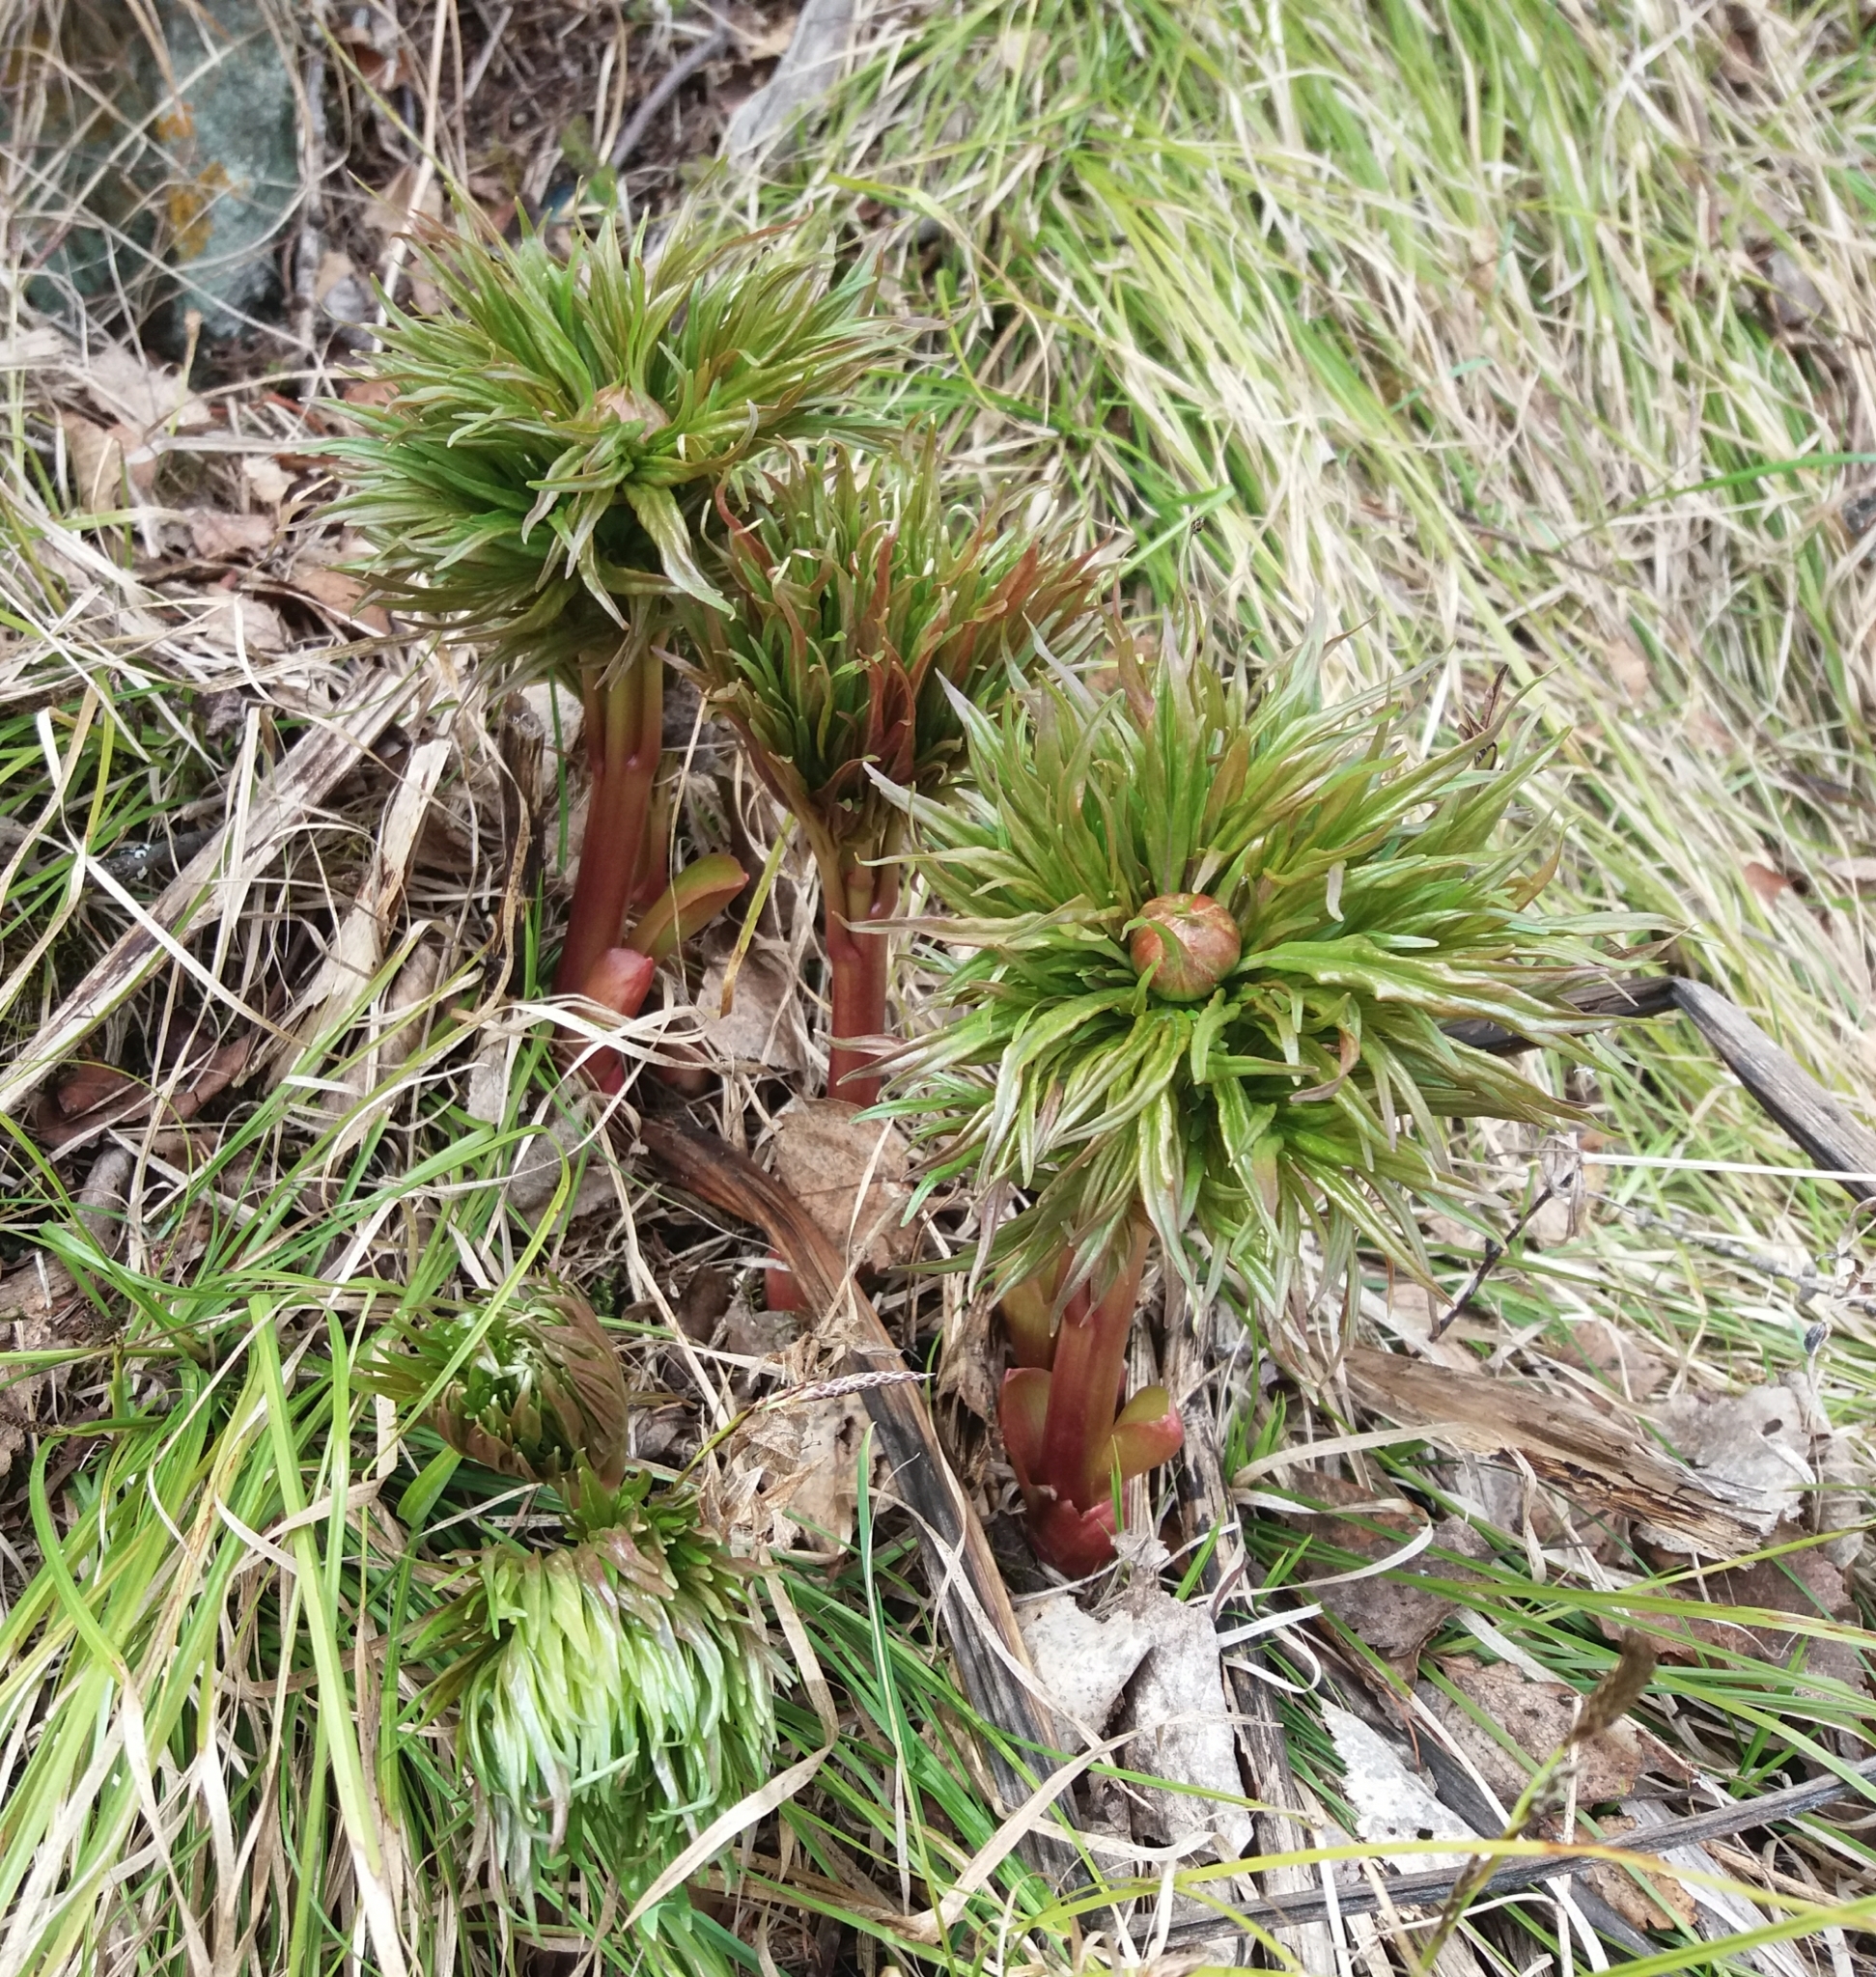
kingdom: Plantae
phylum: Tracheophyta
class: Magnoliopsida
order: Saxifragales
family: Paeoniaceae
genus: Paeonia
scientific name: Paeonia anomala
